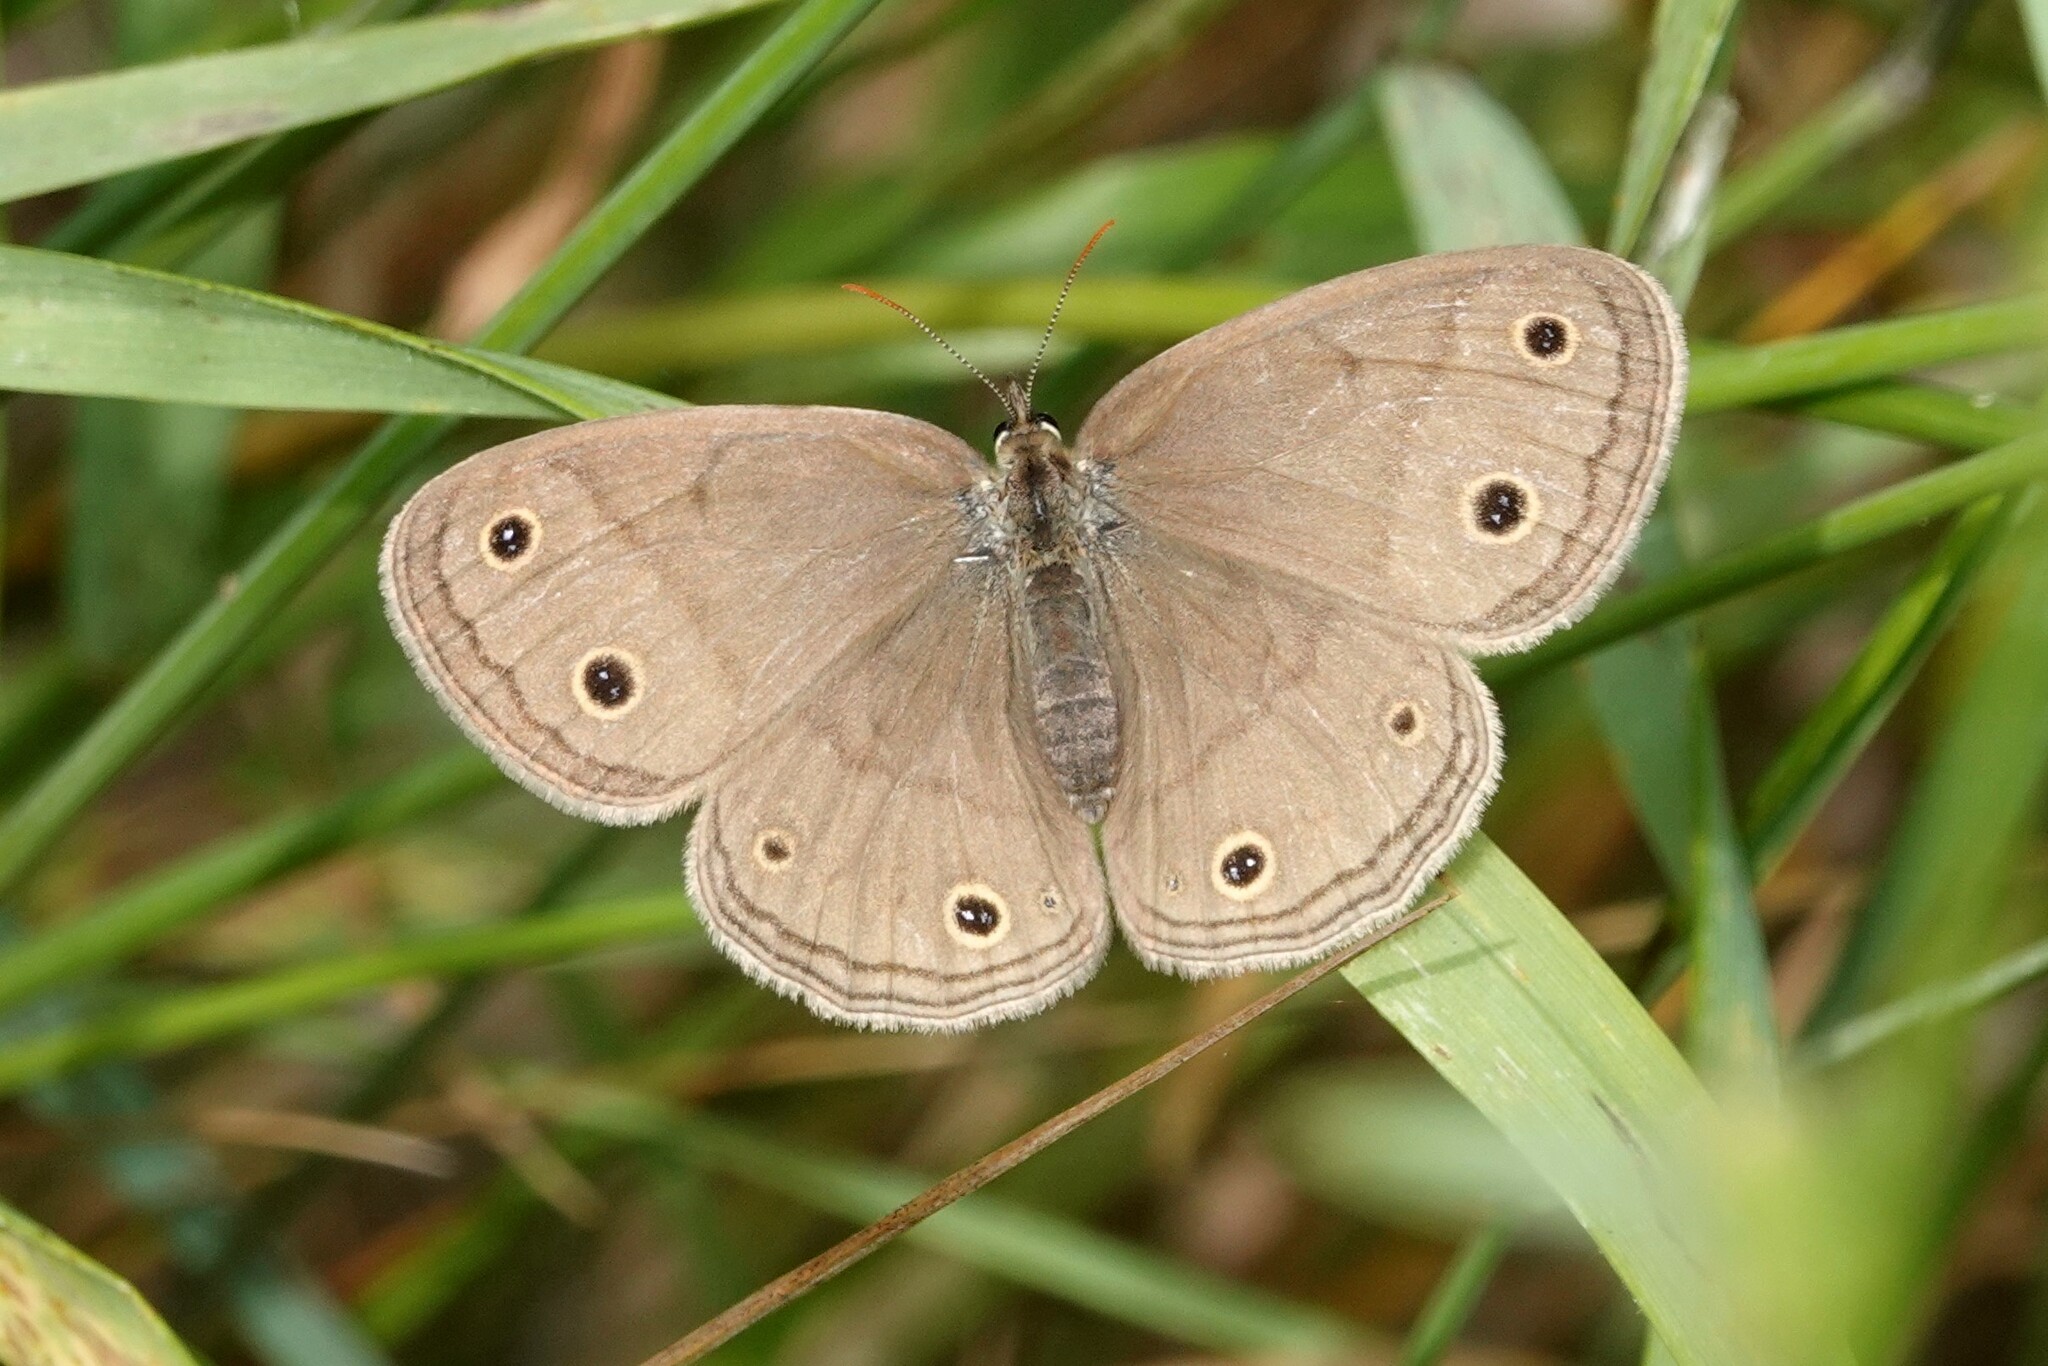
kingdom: Animalia
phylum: Arthropoda
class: Insecta
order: Lepidoptera
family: Nymphalidae
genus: Euptychia
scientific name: Euptychia cymela
